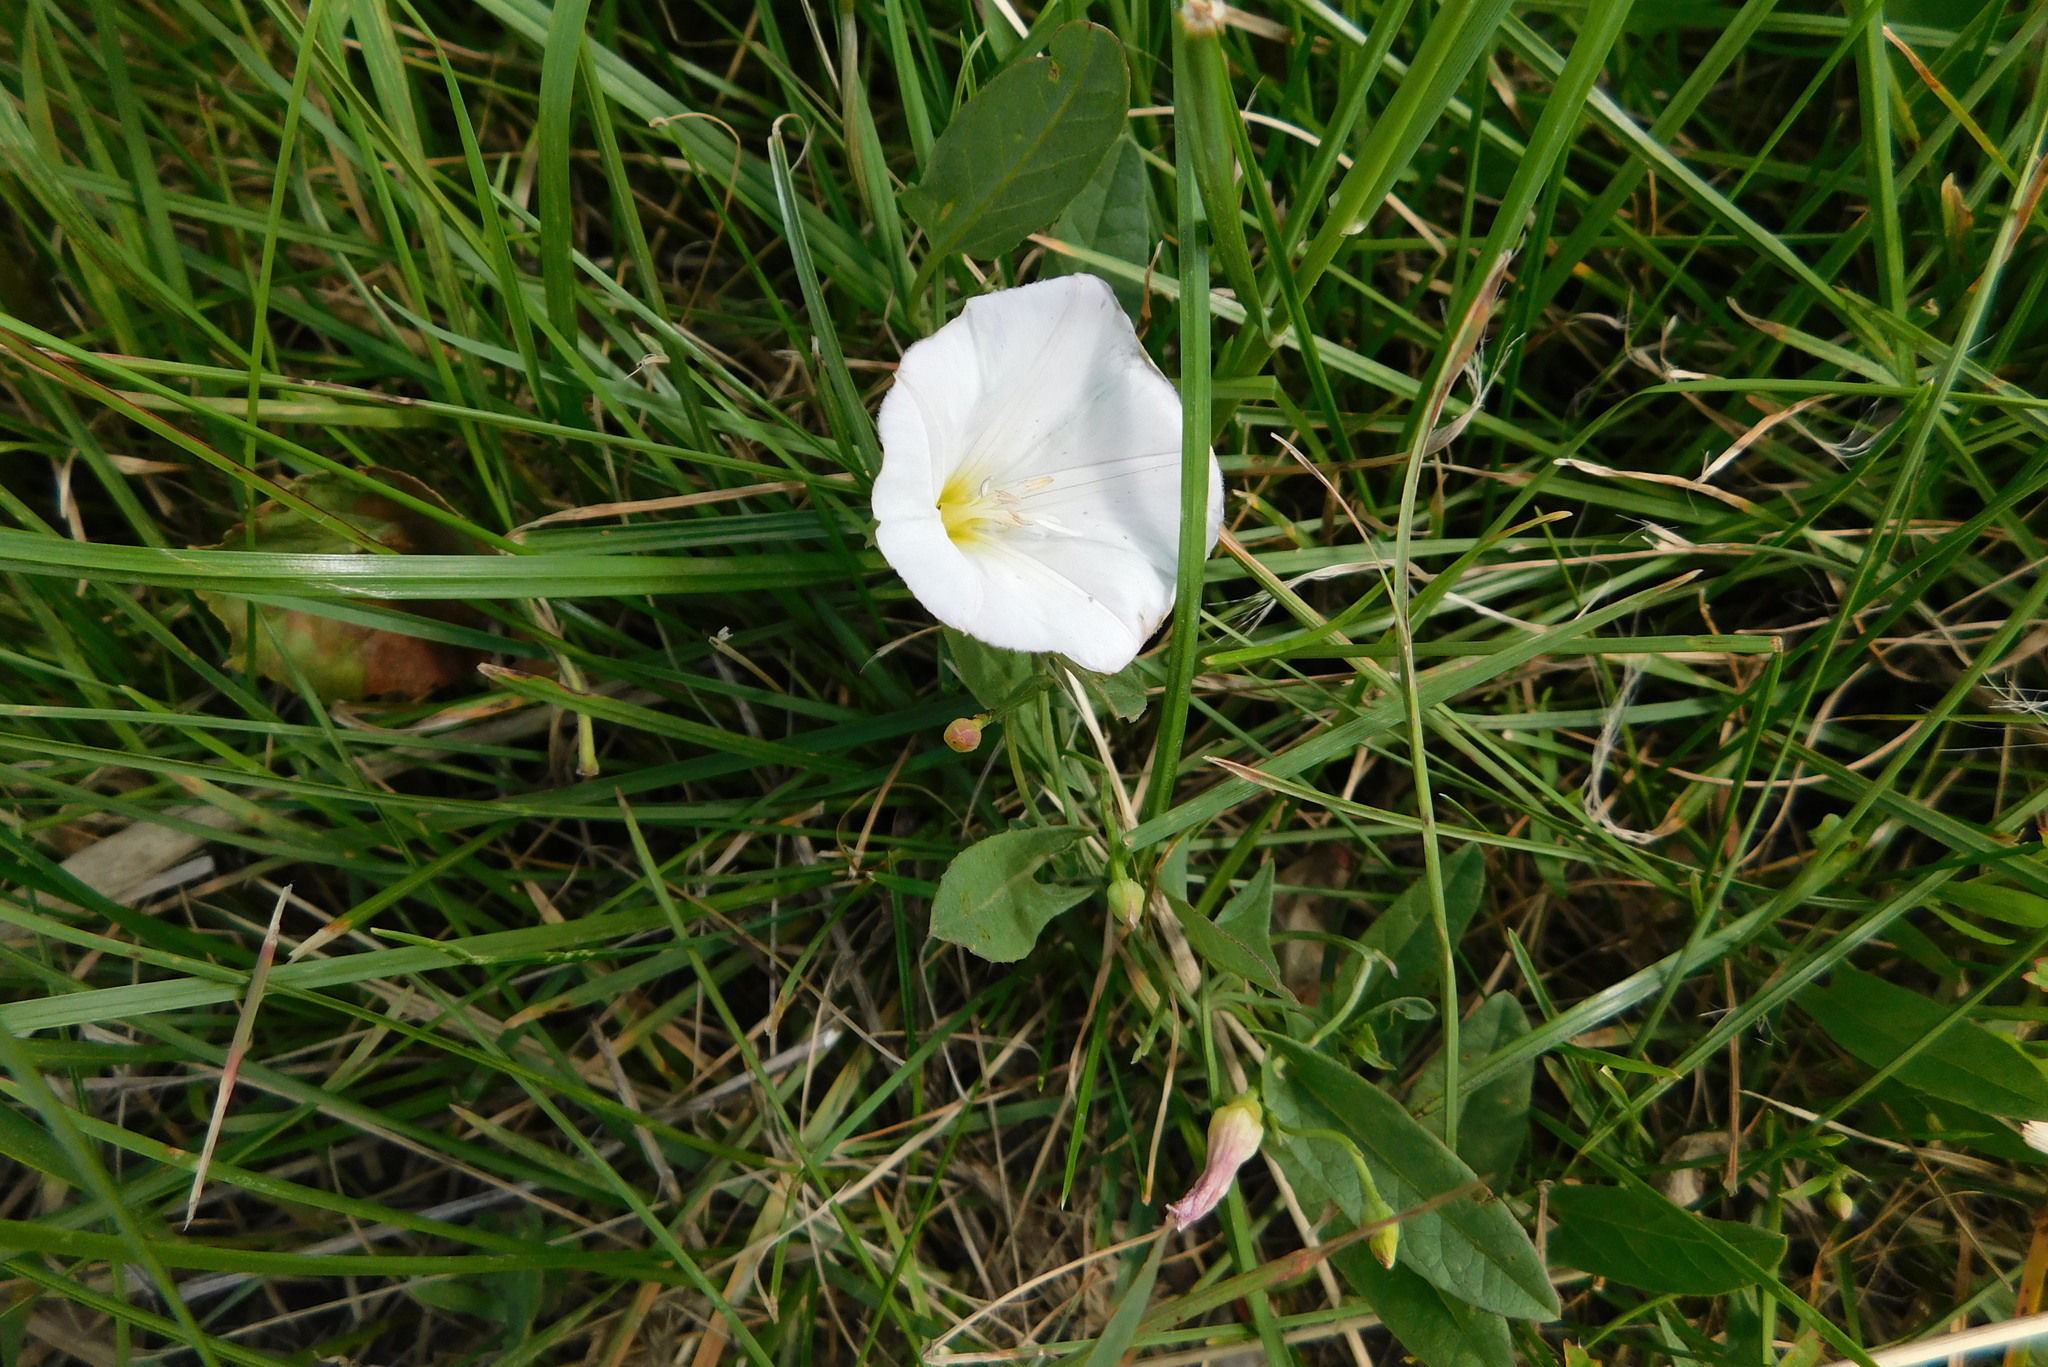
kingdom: Plantae
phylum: Tracheophyta
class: Magnoliopsida
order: Solanales
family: Convolvulaceae
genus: Convolvulus
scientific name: Convolvulus arvensis
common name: Field bindweed
